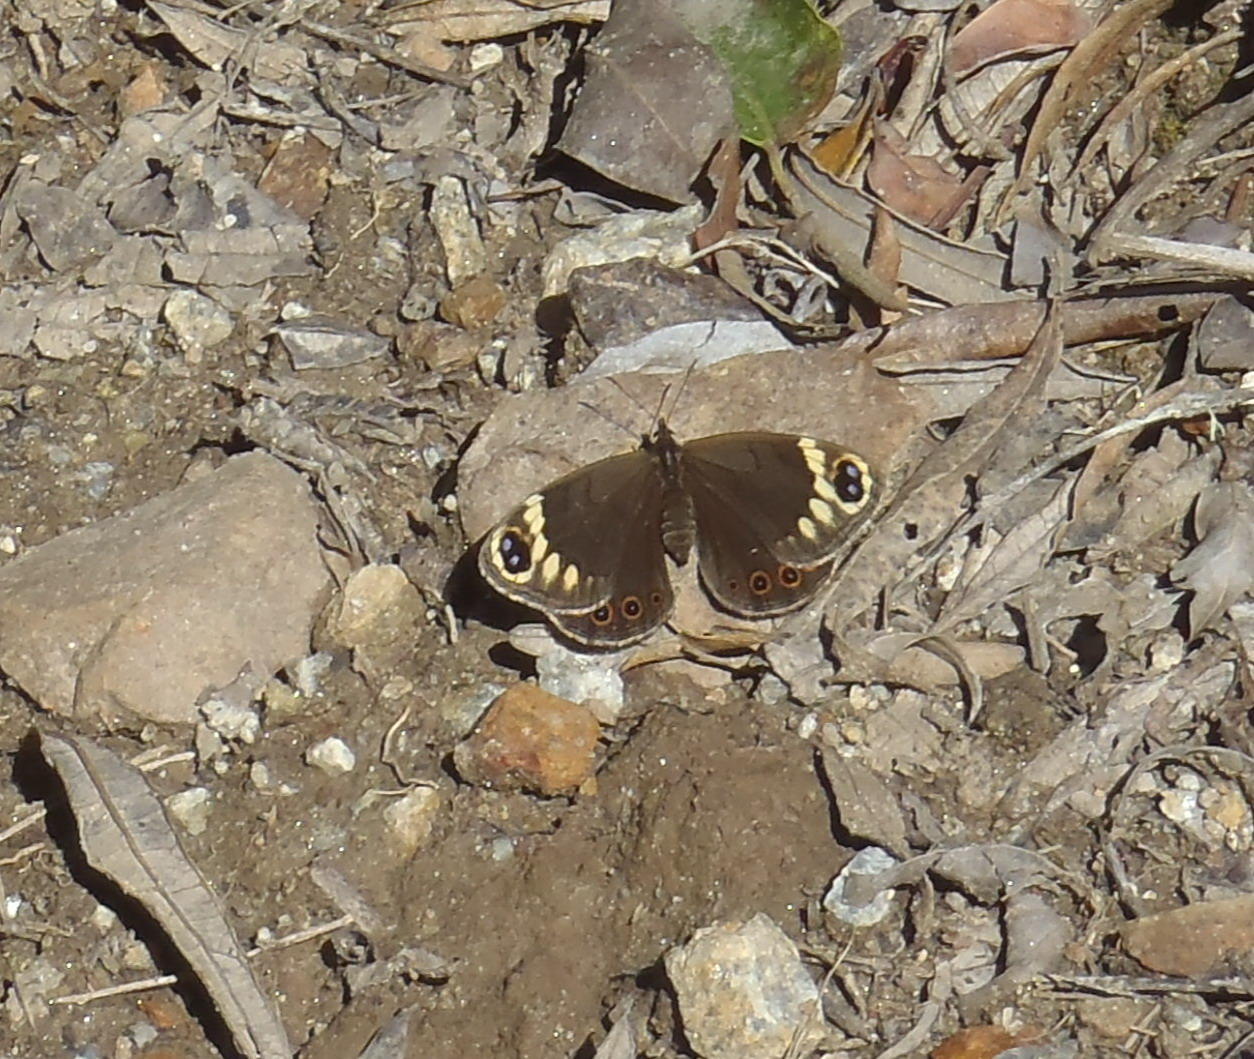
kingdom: Animalia
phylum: Arthropoda
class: Insecta
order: Lepidoptera
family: Nymphalidae
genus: Dira
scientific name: Dira clytus
